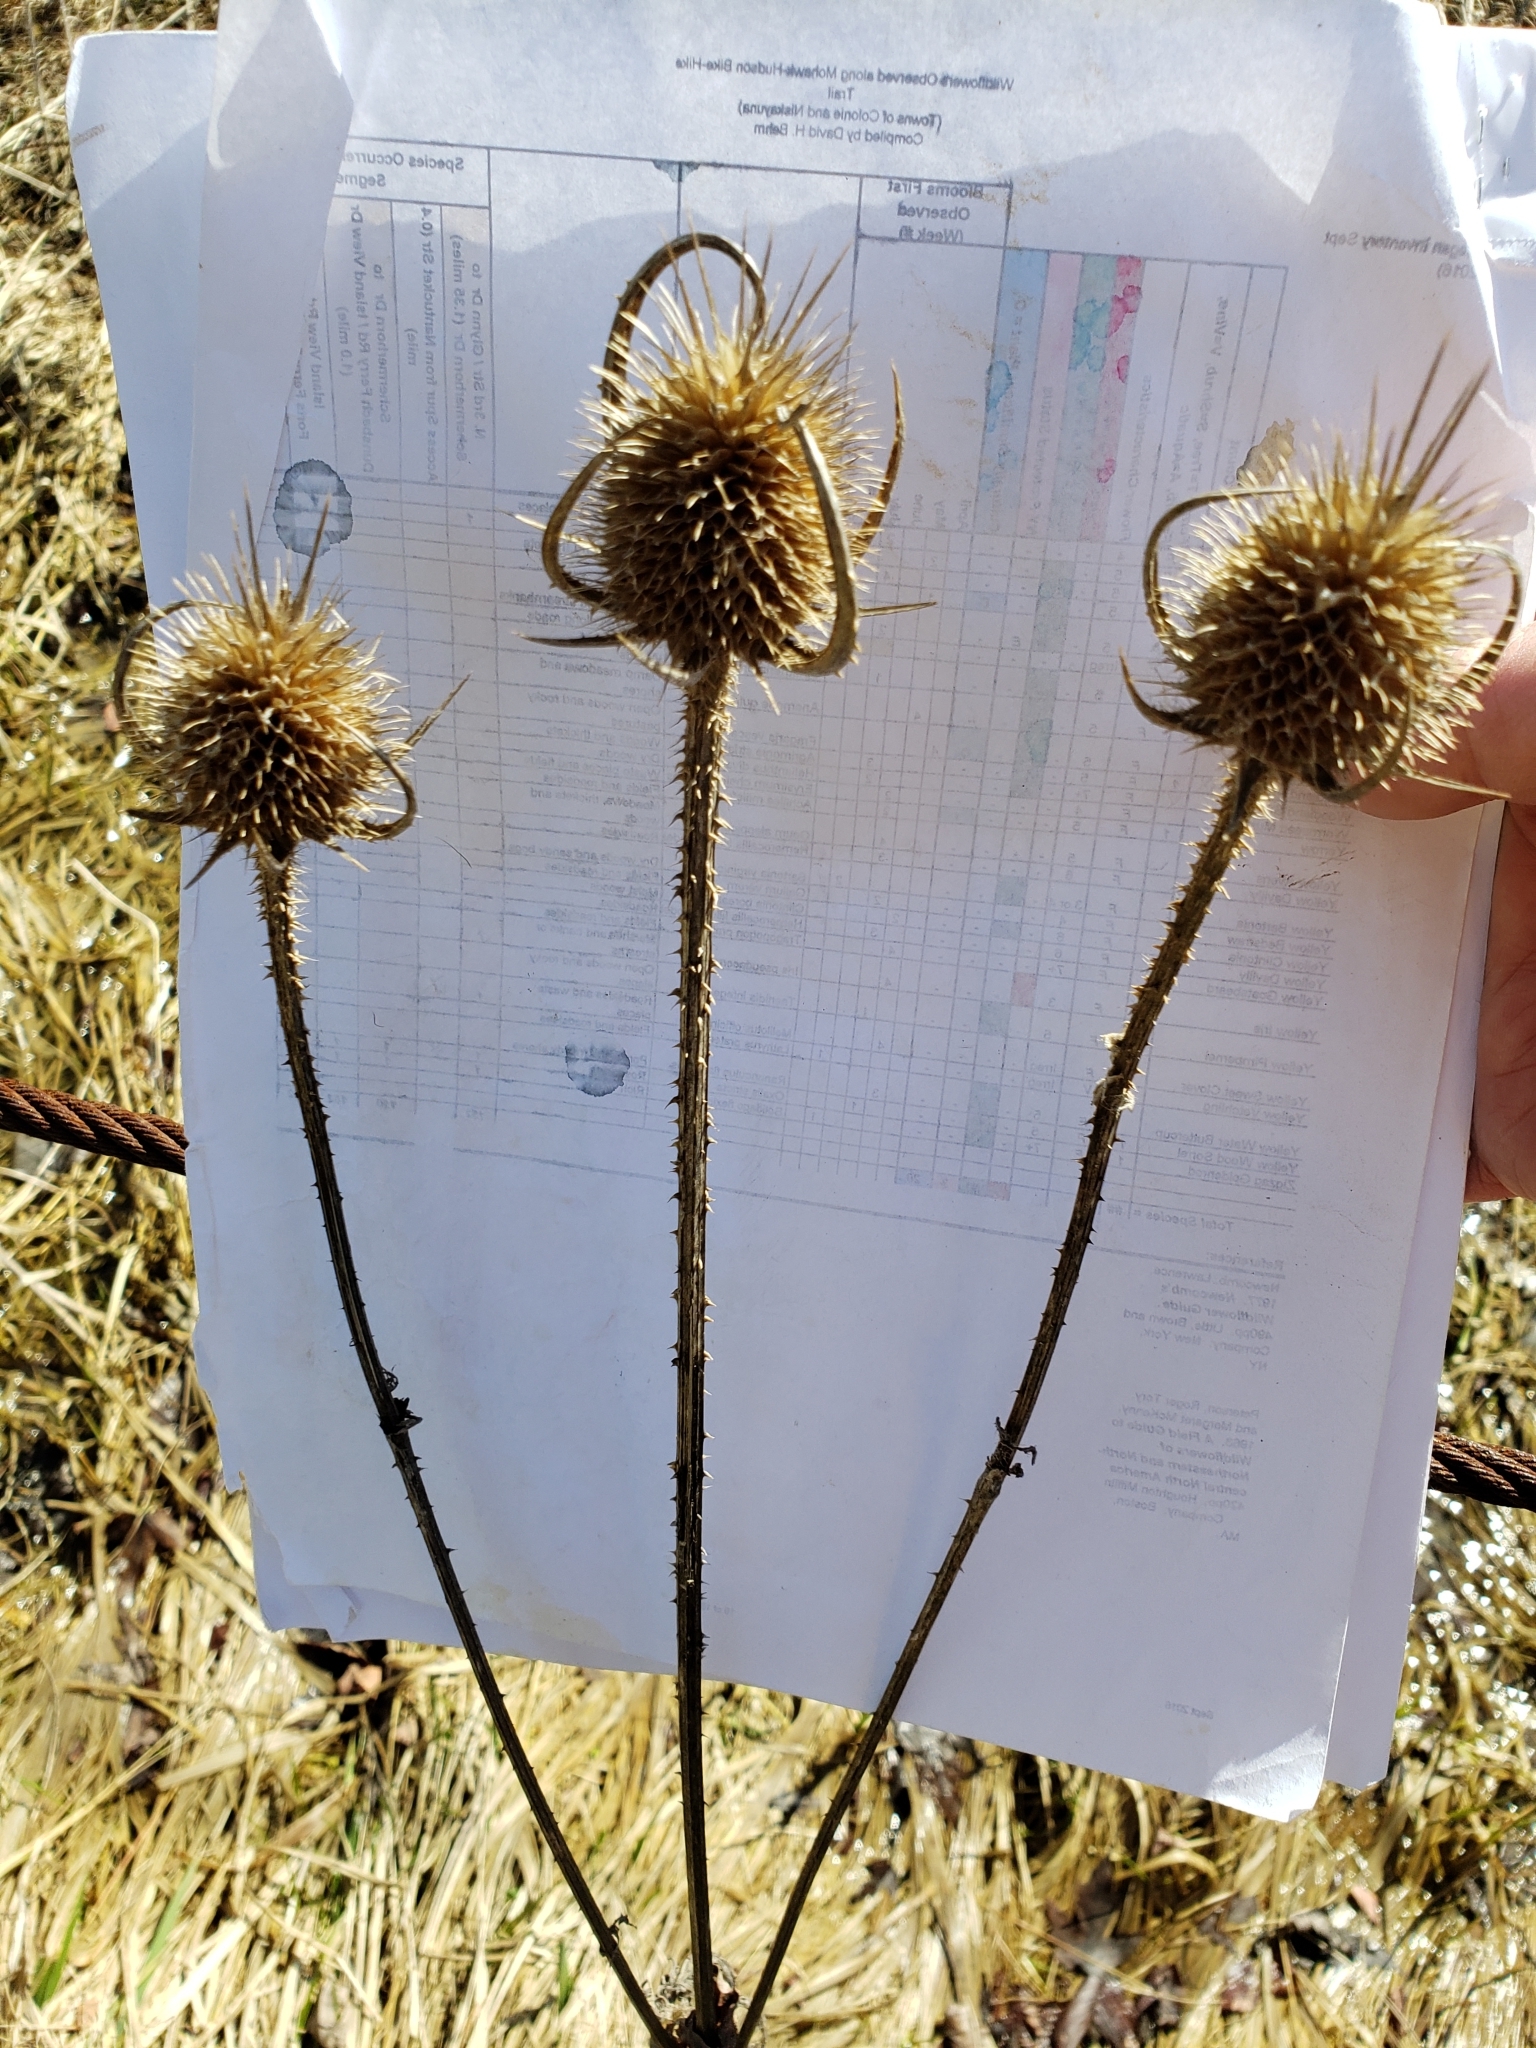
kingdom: Plantae
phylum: Tracheophyta
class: Magnoliopsida
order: Dipsacales
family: Caprifoliaceae
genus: Dipsacus
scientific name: Dipsacus laciniatus
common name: Cut-leaved teasel
